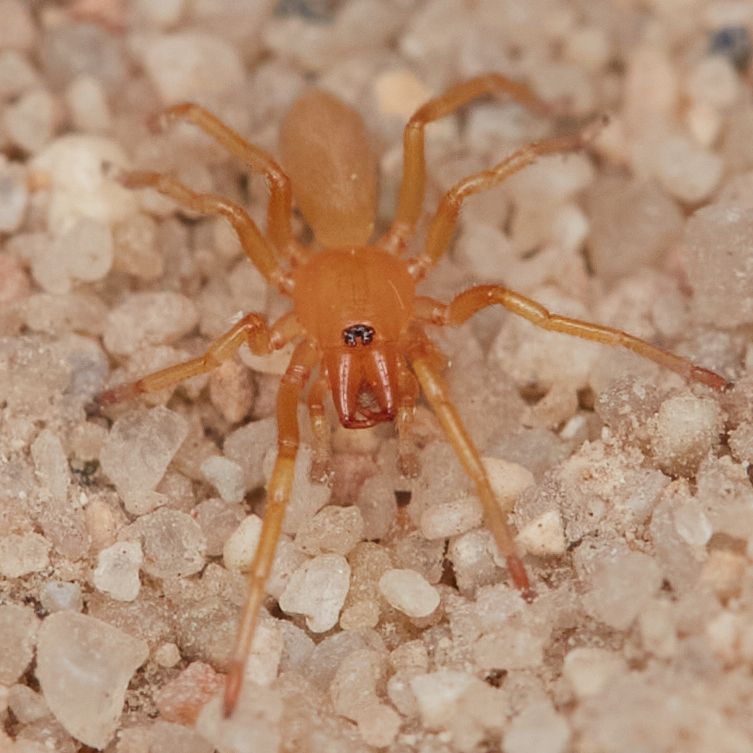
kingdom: Animalia
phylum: Arthropoda
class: Arachnida
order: Araneae
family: Dysderidae
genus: Dysdera
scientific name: Dysdera crocata
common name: Woodlouse spider
